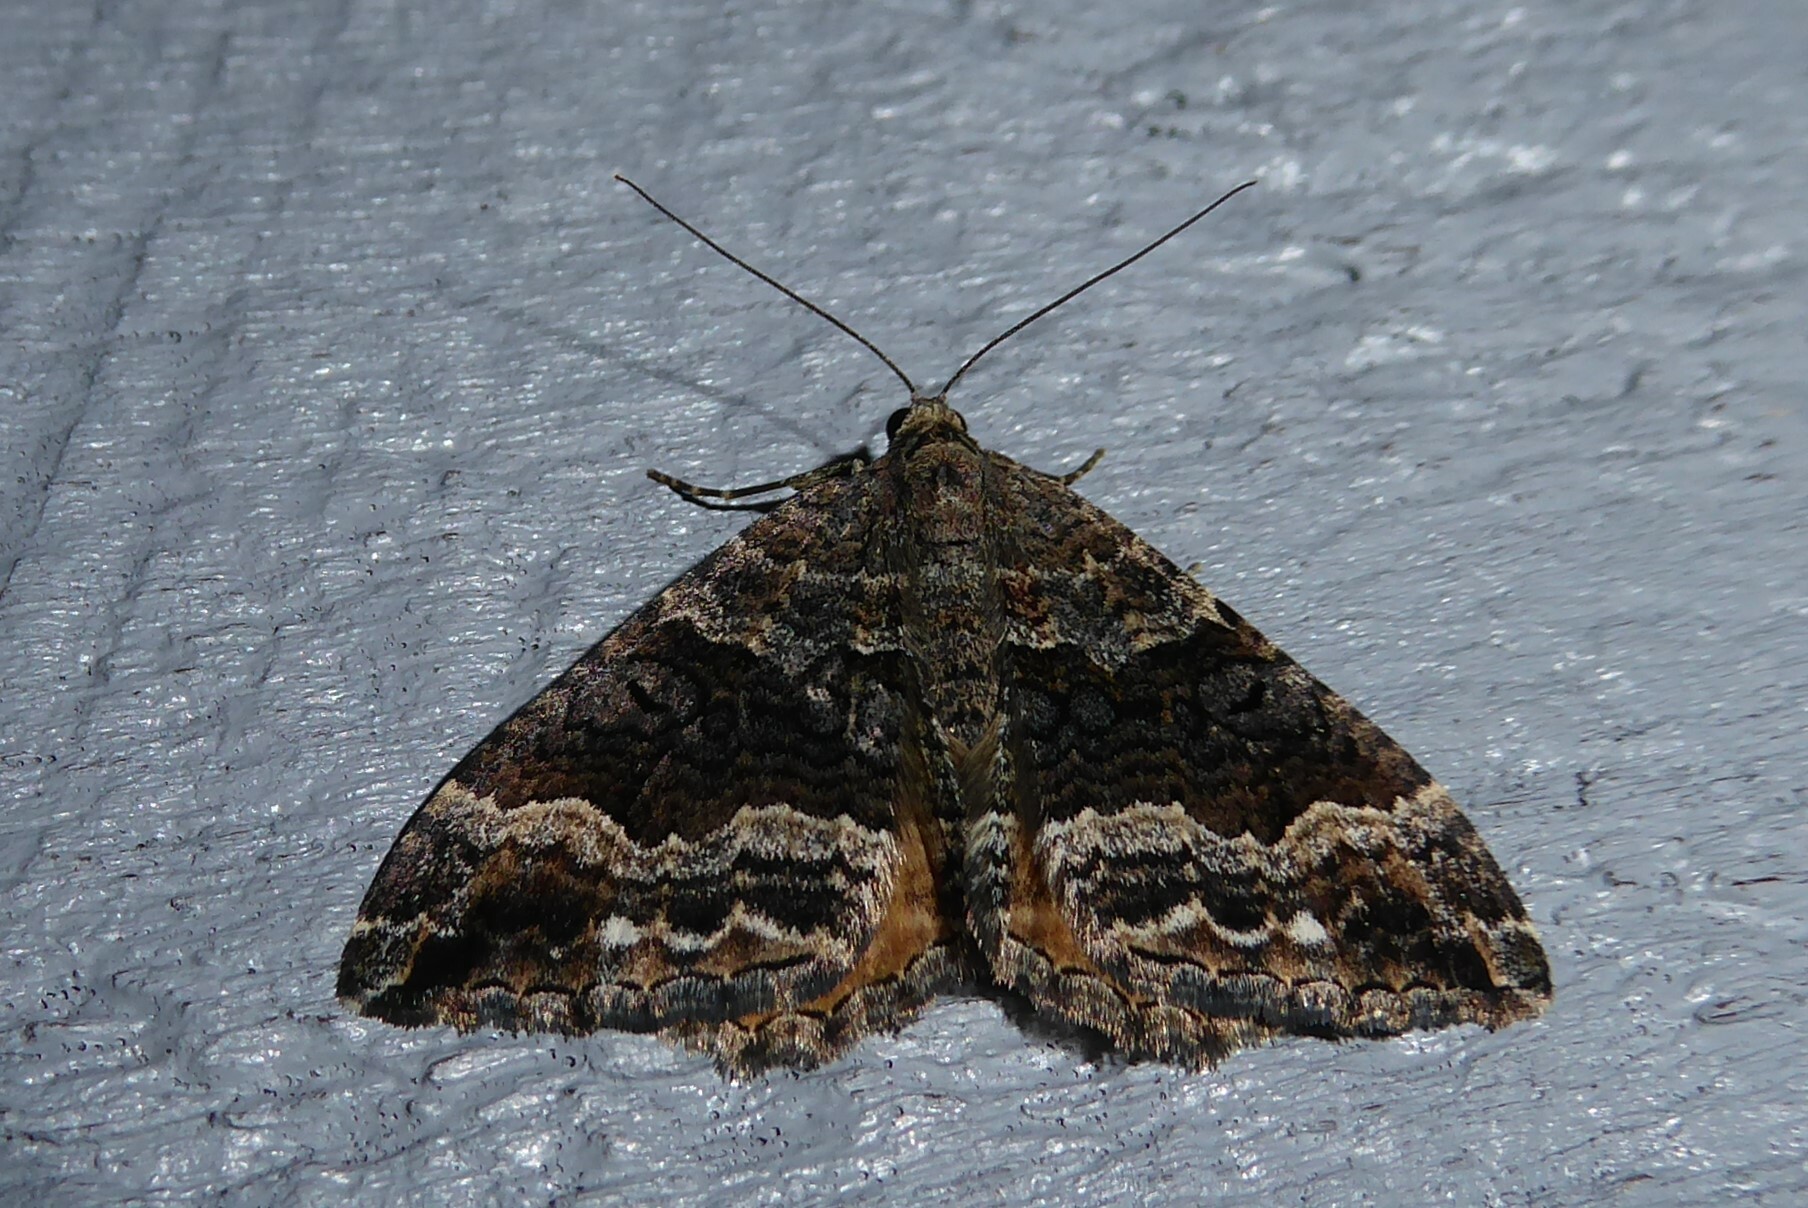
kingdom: Animalia
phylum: Arthropoda
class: Insecta
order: Lepidoptera
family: Geometridae
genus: Hydriomena
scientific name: Hydriomena deltoidata
